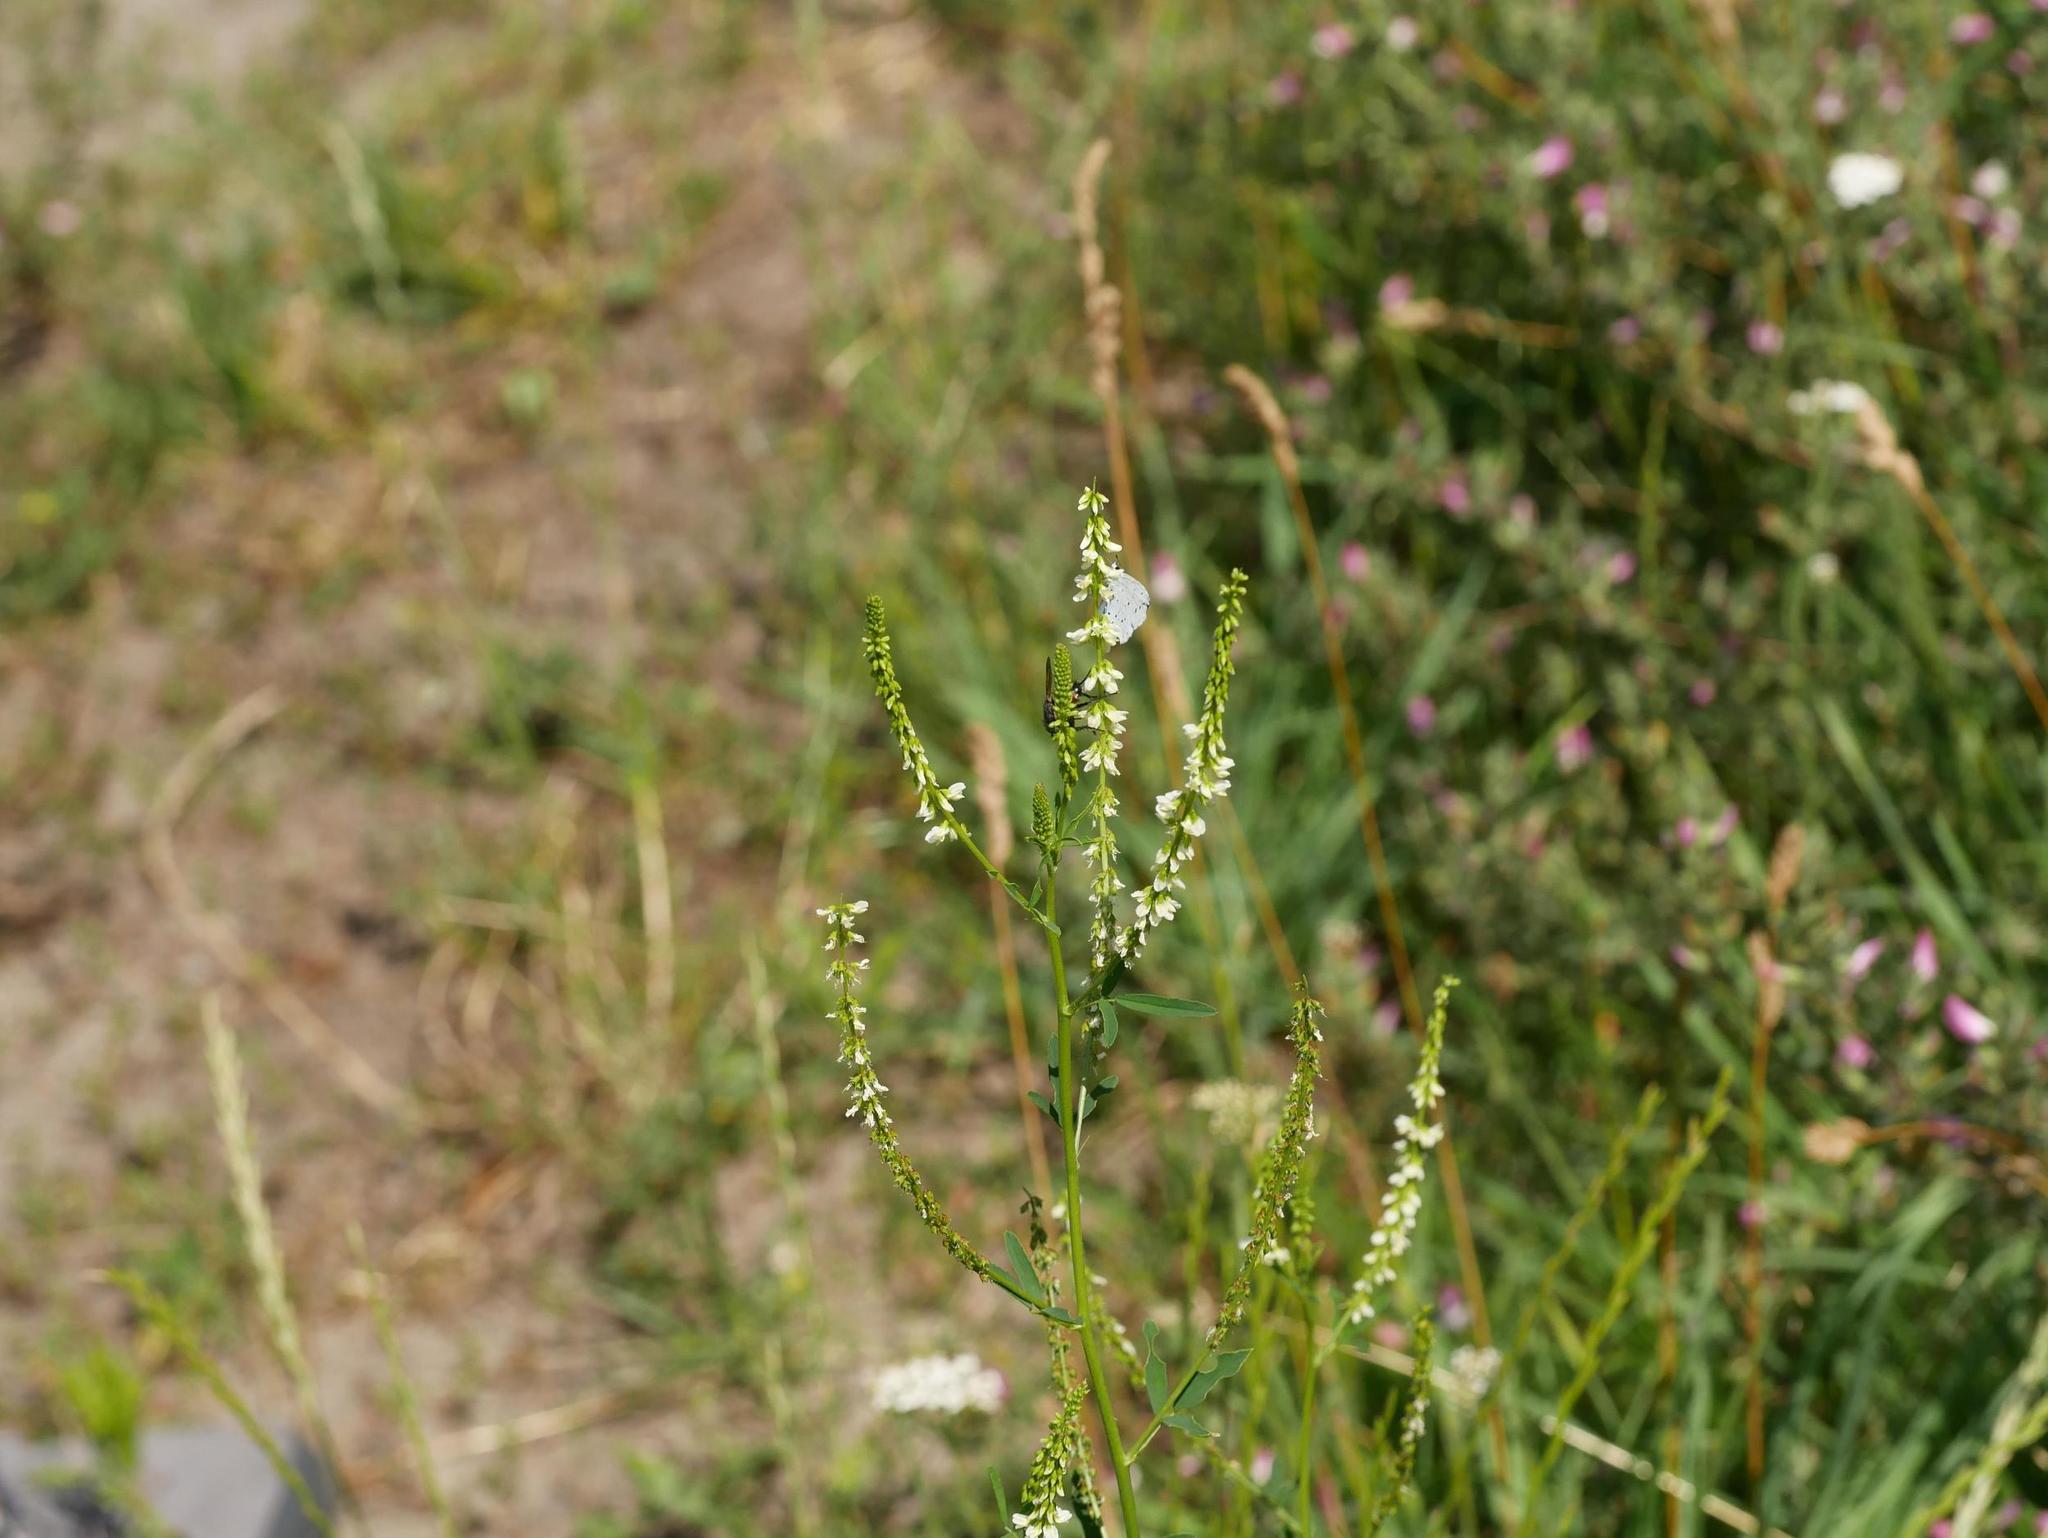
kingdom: Plantae
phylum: Tracheophyta
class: Magnoliopsida
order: Fabales
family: Fabaceae
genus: Melilotus
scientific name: Melilotus albus
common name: White melilot
